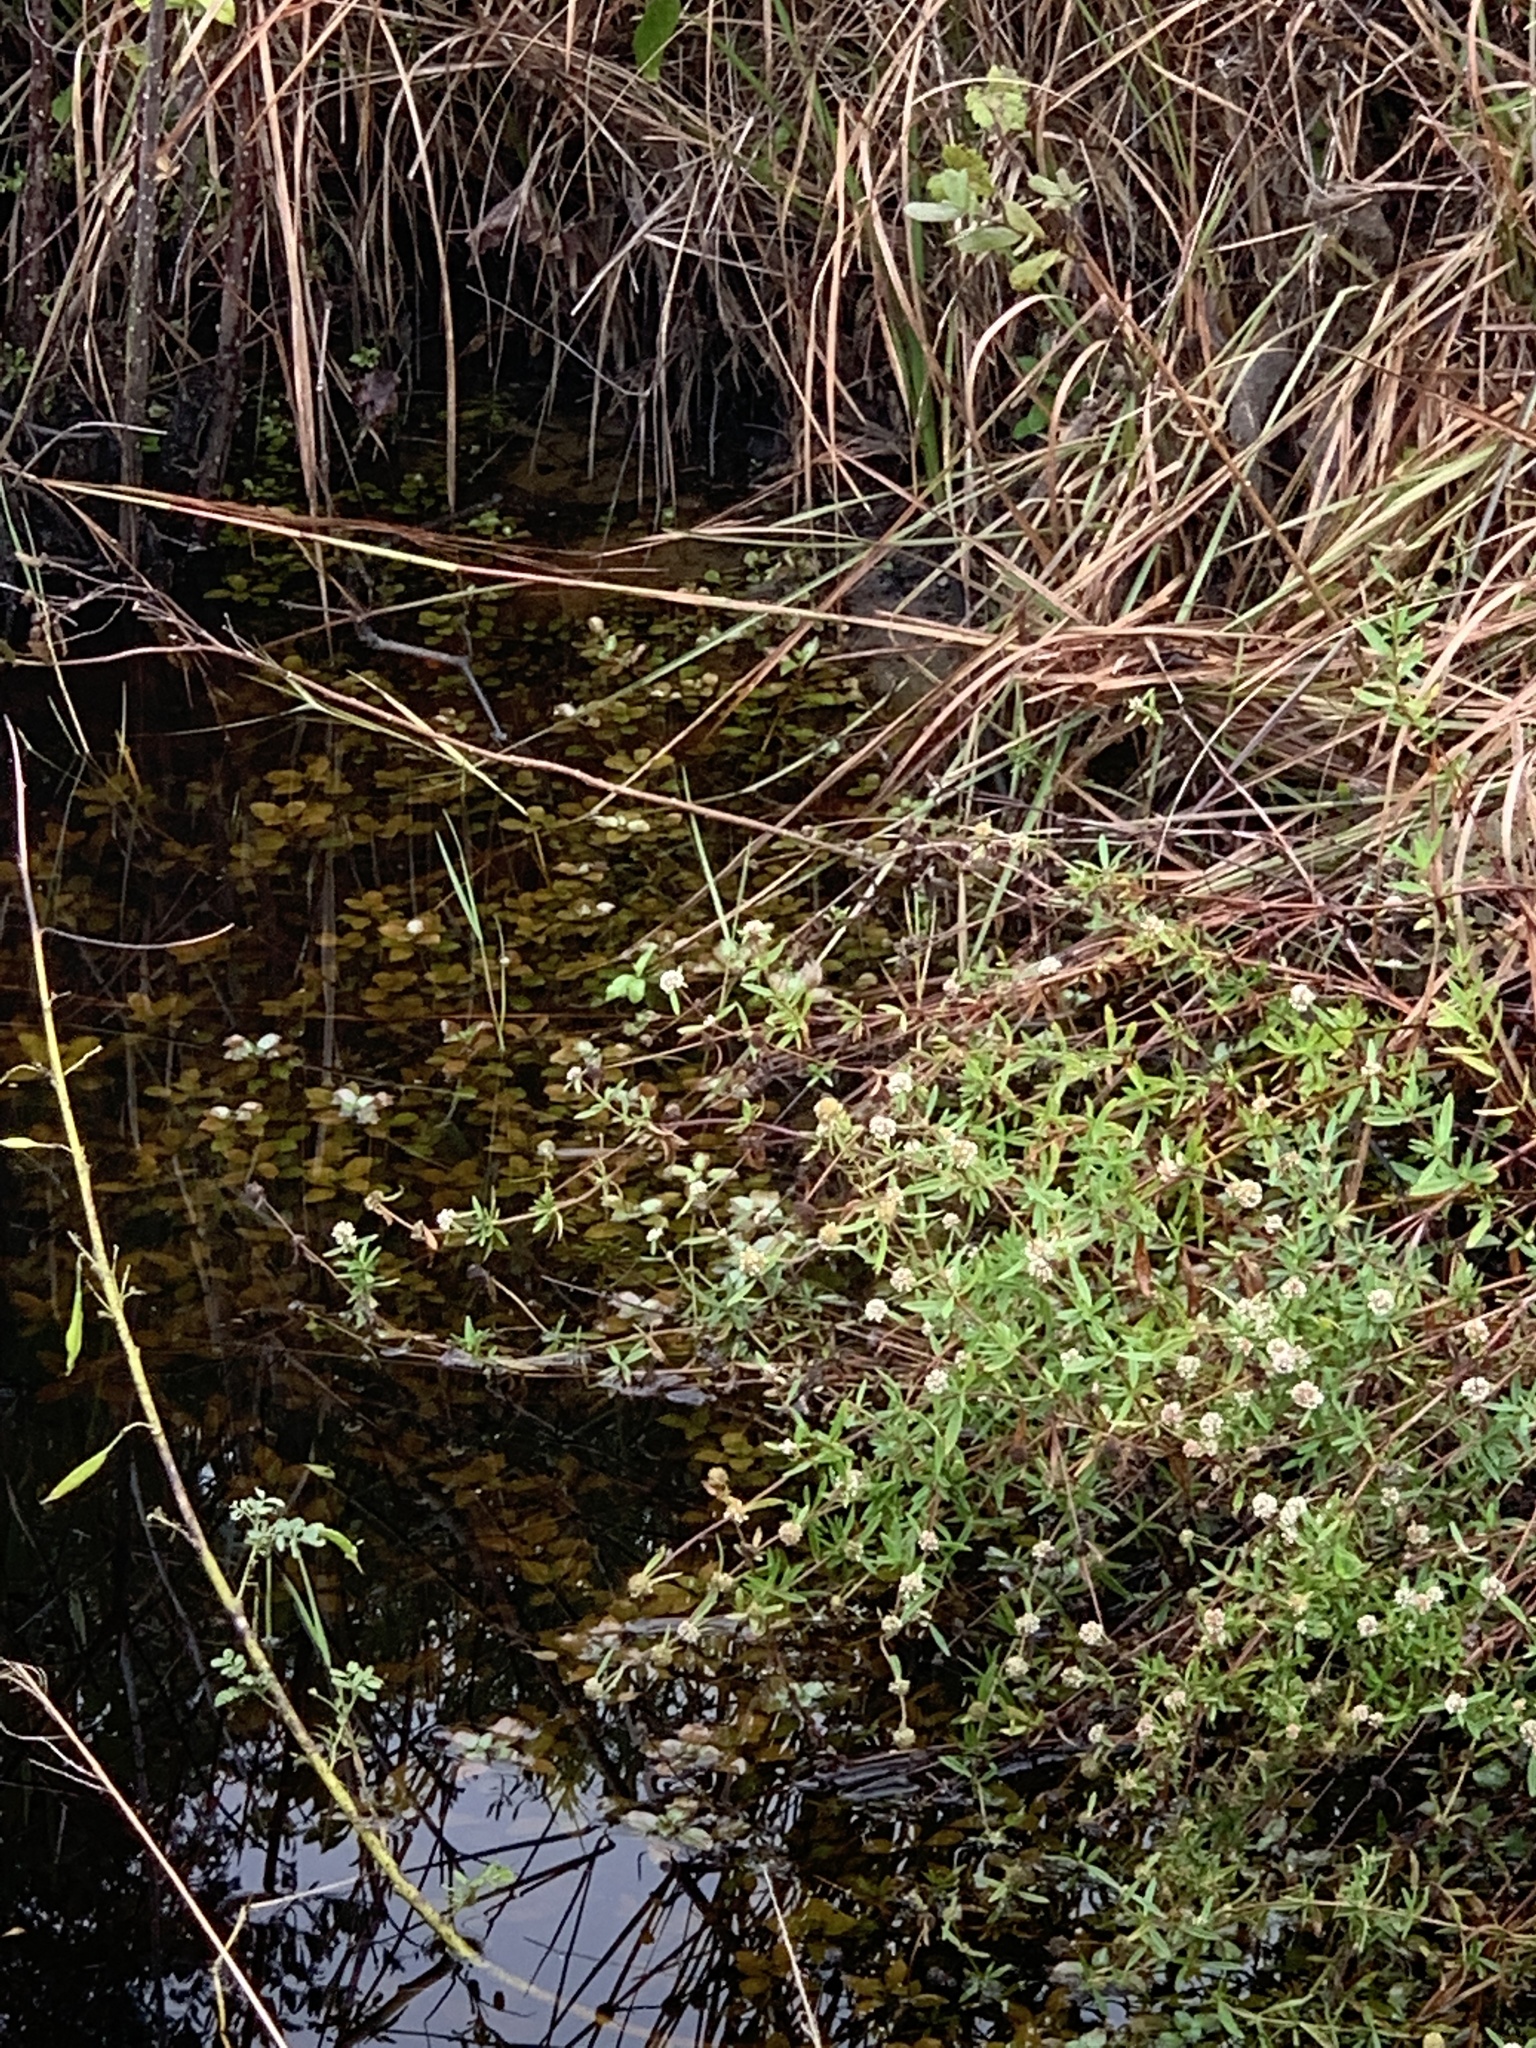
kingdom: Plantae
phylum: Tracheophyta
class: Magnoliopsida
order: Gentianales
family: Rubiaceae
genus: Spermacoce
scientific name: Spermacoce verticillata
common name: Shrubby false buttonweed
